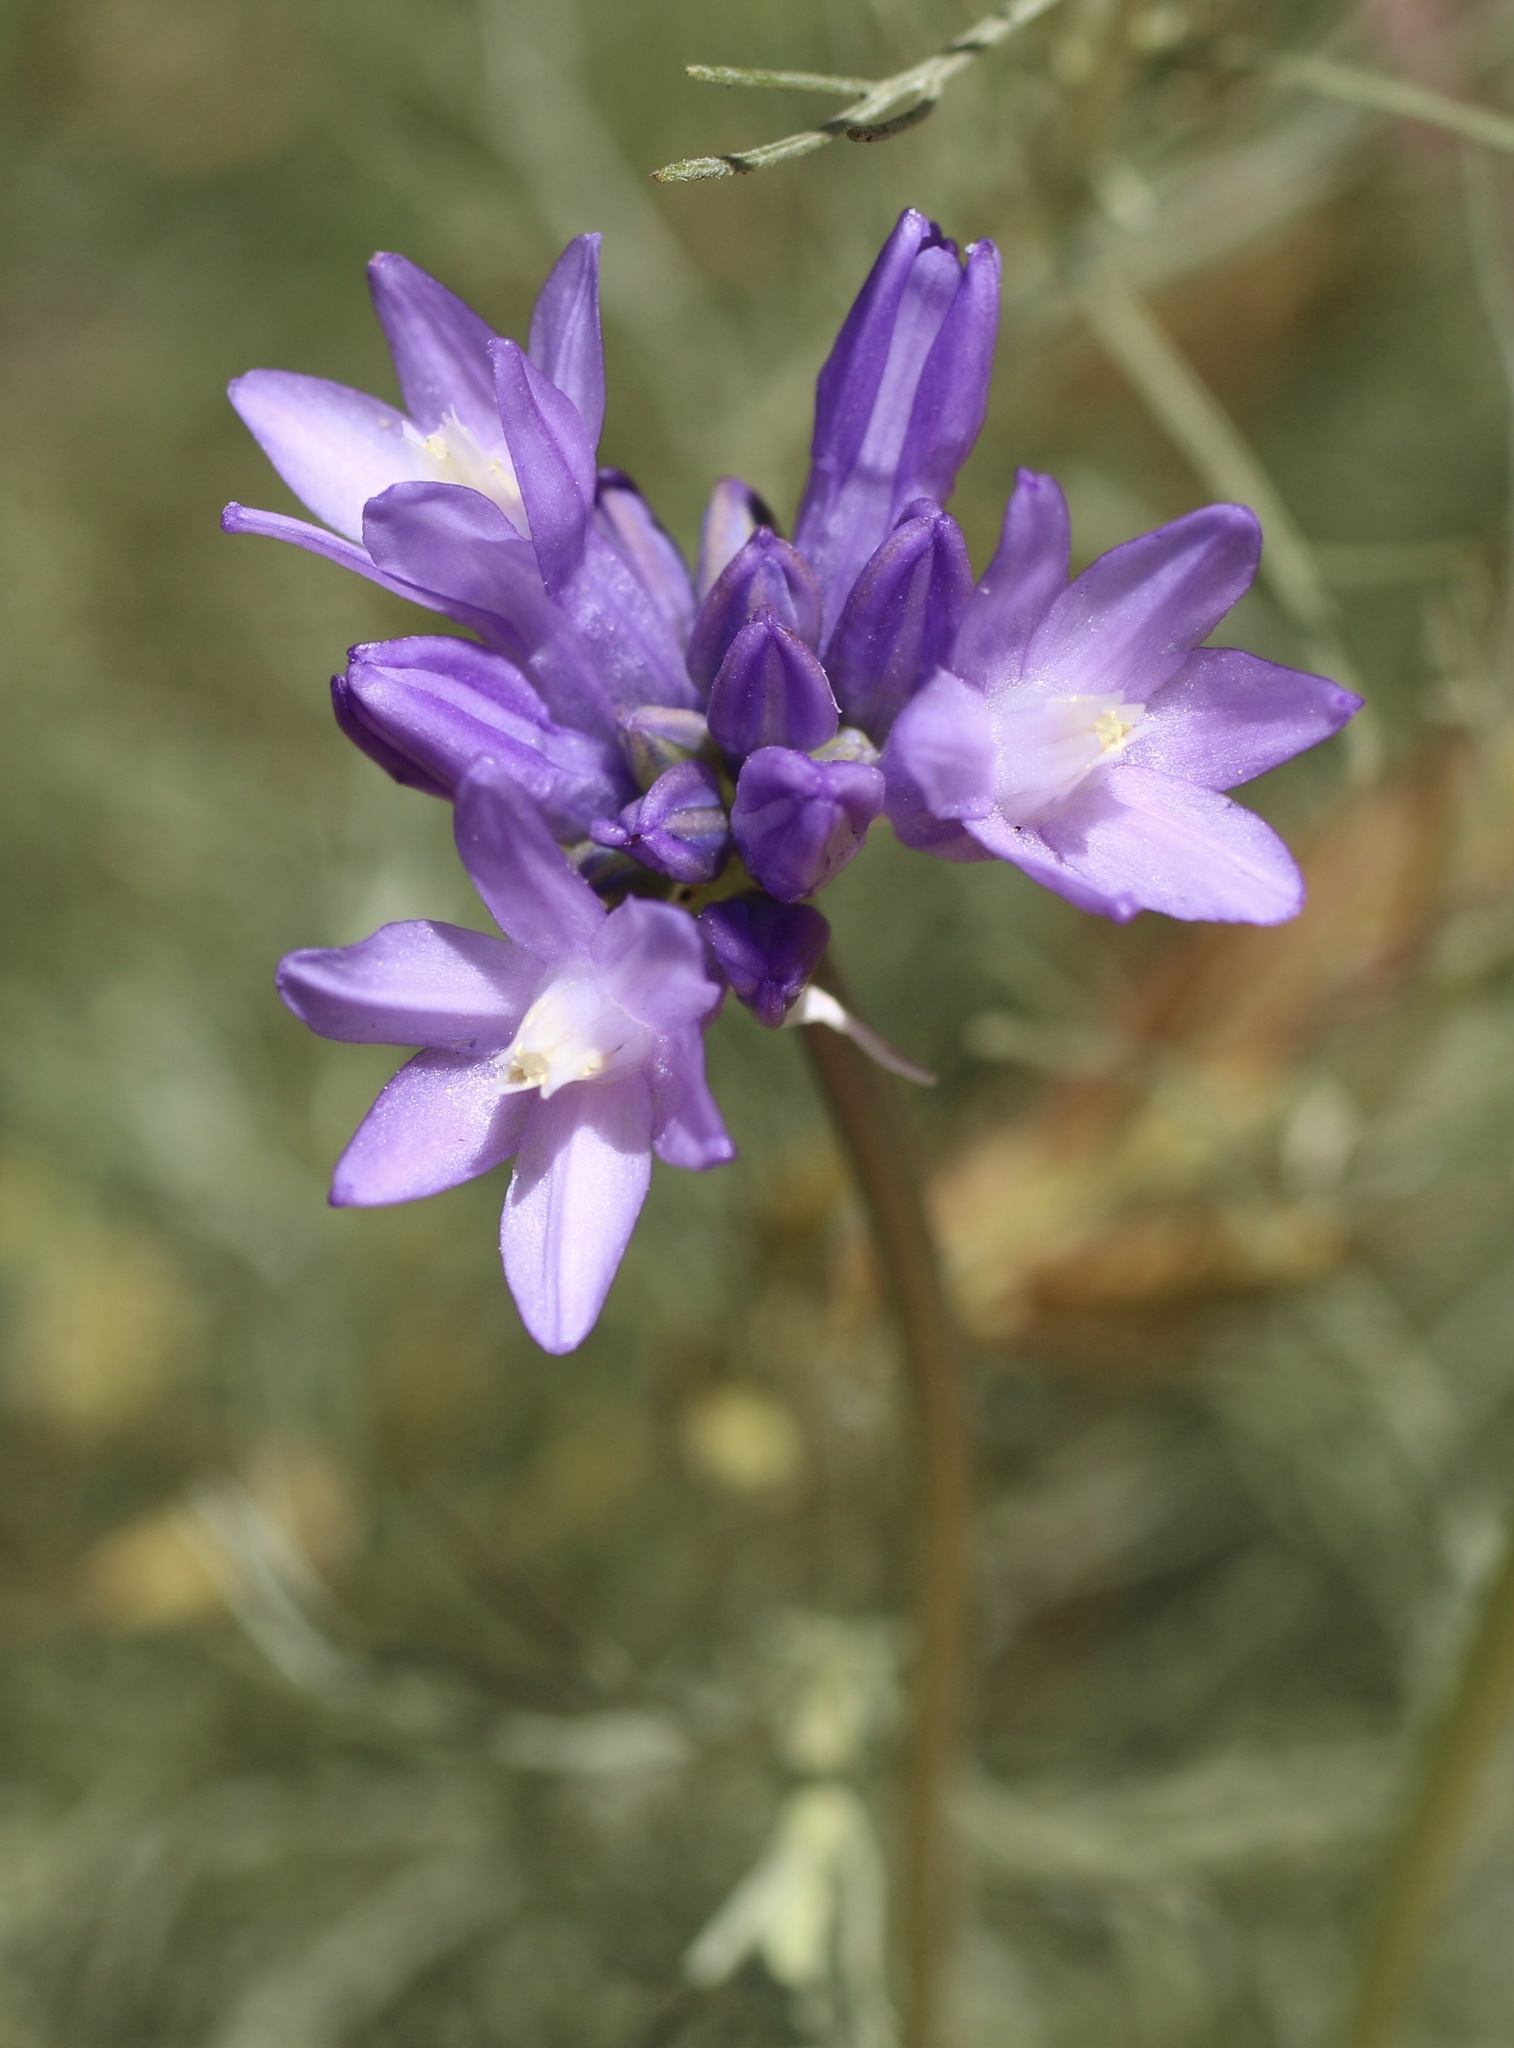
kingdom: Plantae
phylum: Tracheophyta
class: Liliopsida
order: Asparagales
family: Asparagaceae
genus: Dipterostemon
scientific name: Dipterostemon capitatus
